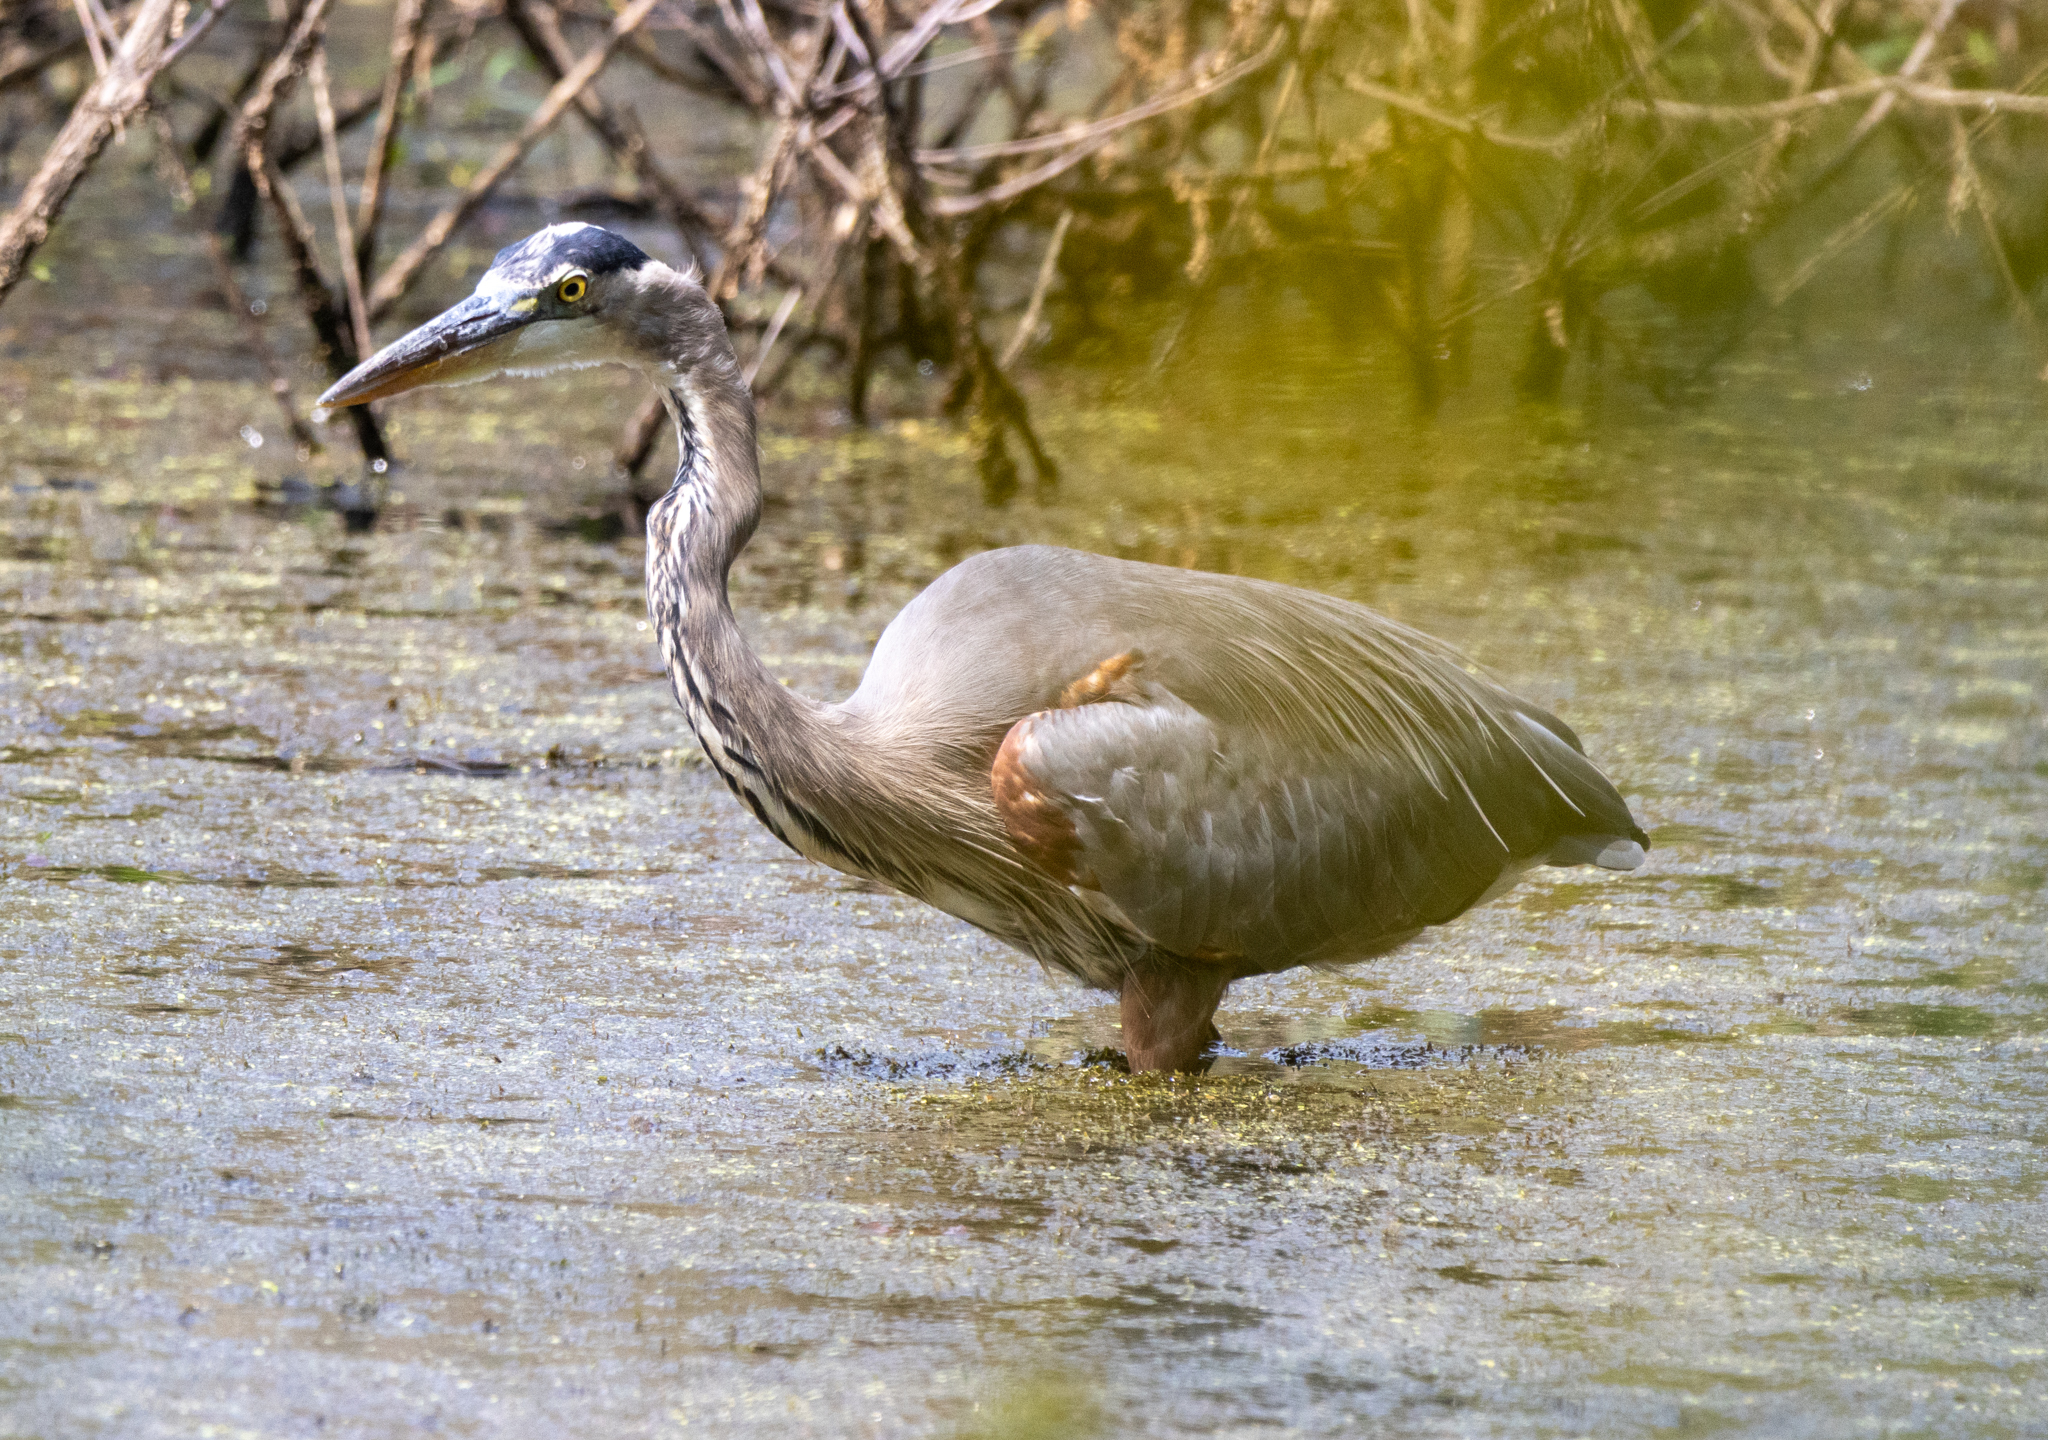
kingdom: Animalia
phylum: Chordata
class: Aves
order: Pelecaniformes
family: Ardeidae
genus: Ardea
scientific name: Ardea herodias
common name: Great blue heron
